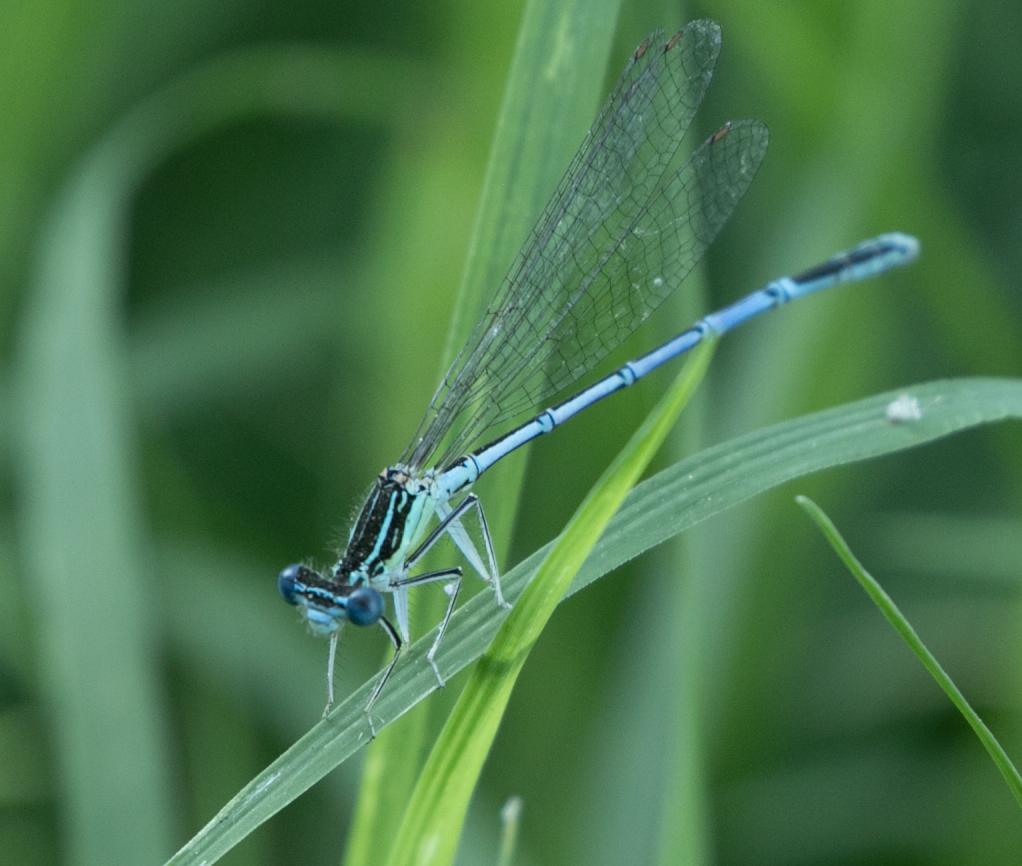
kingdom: Animalia
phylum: Arthropoda
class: Insecta
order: Odonata
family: Platycnemididae
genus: Platycnemis
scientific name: Platycnemis pennipes
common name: White-legged damselfly
